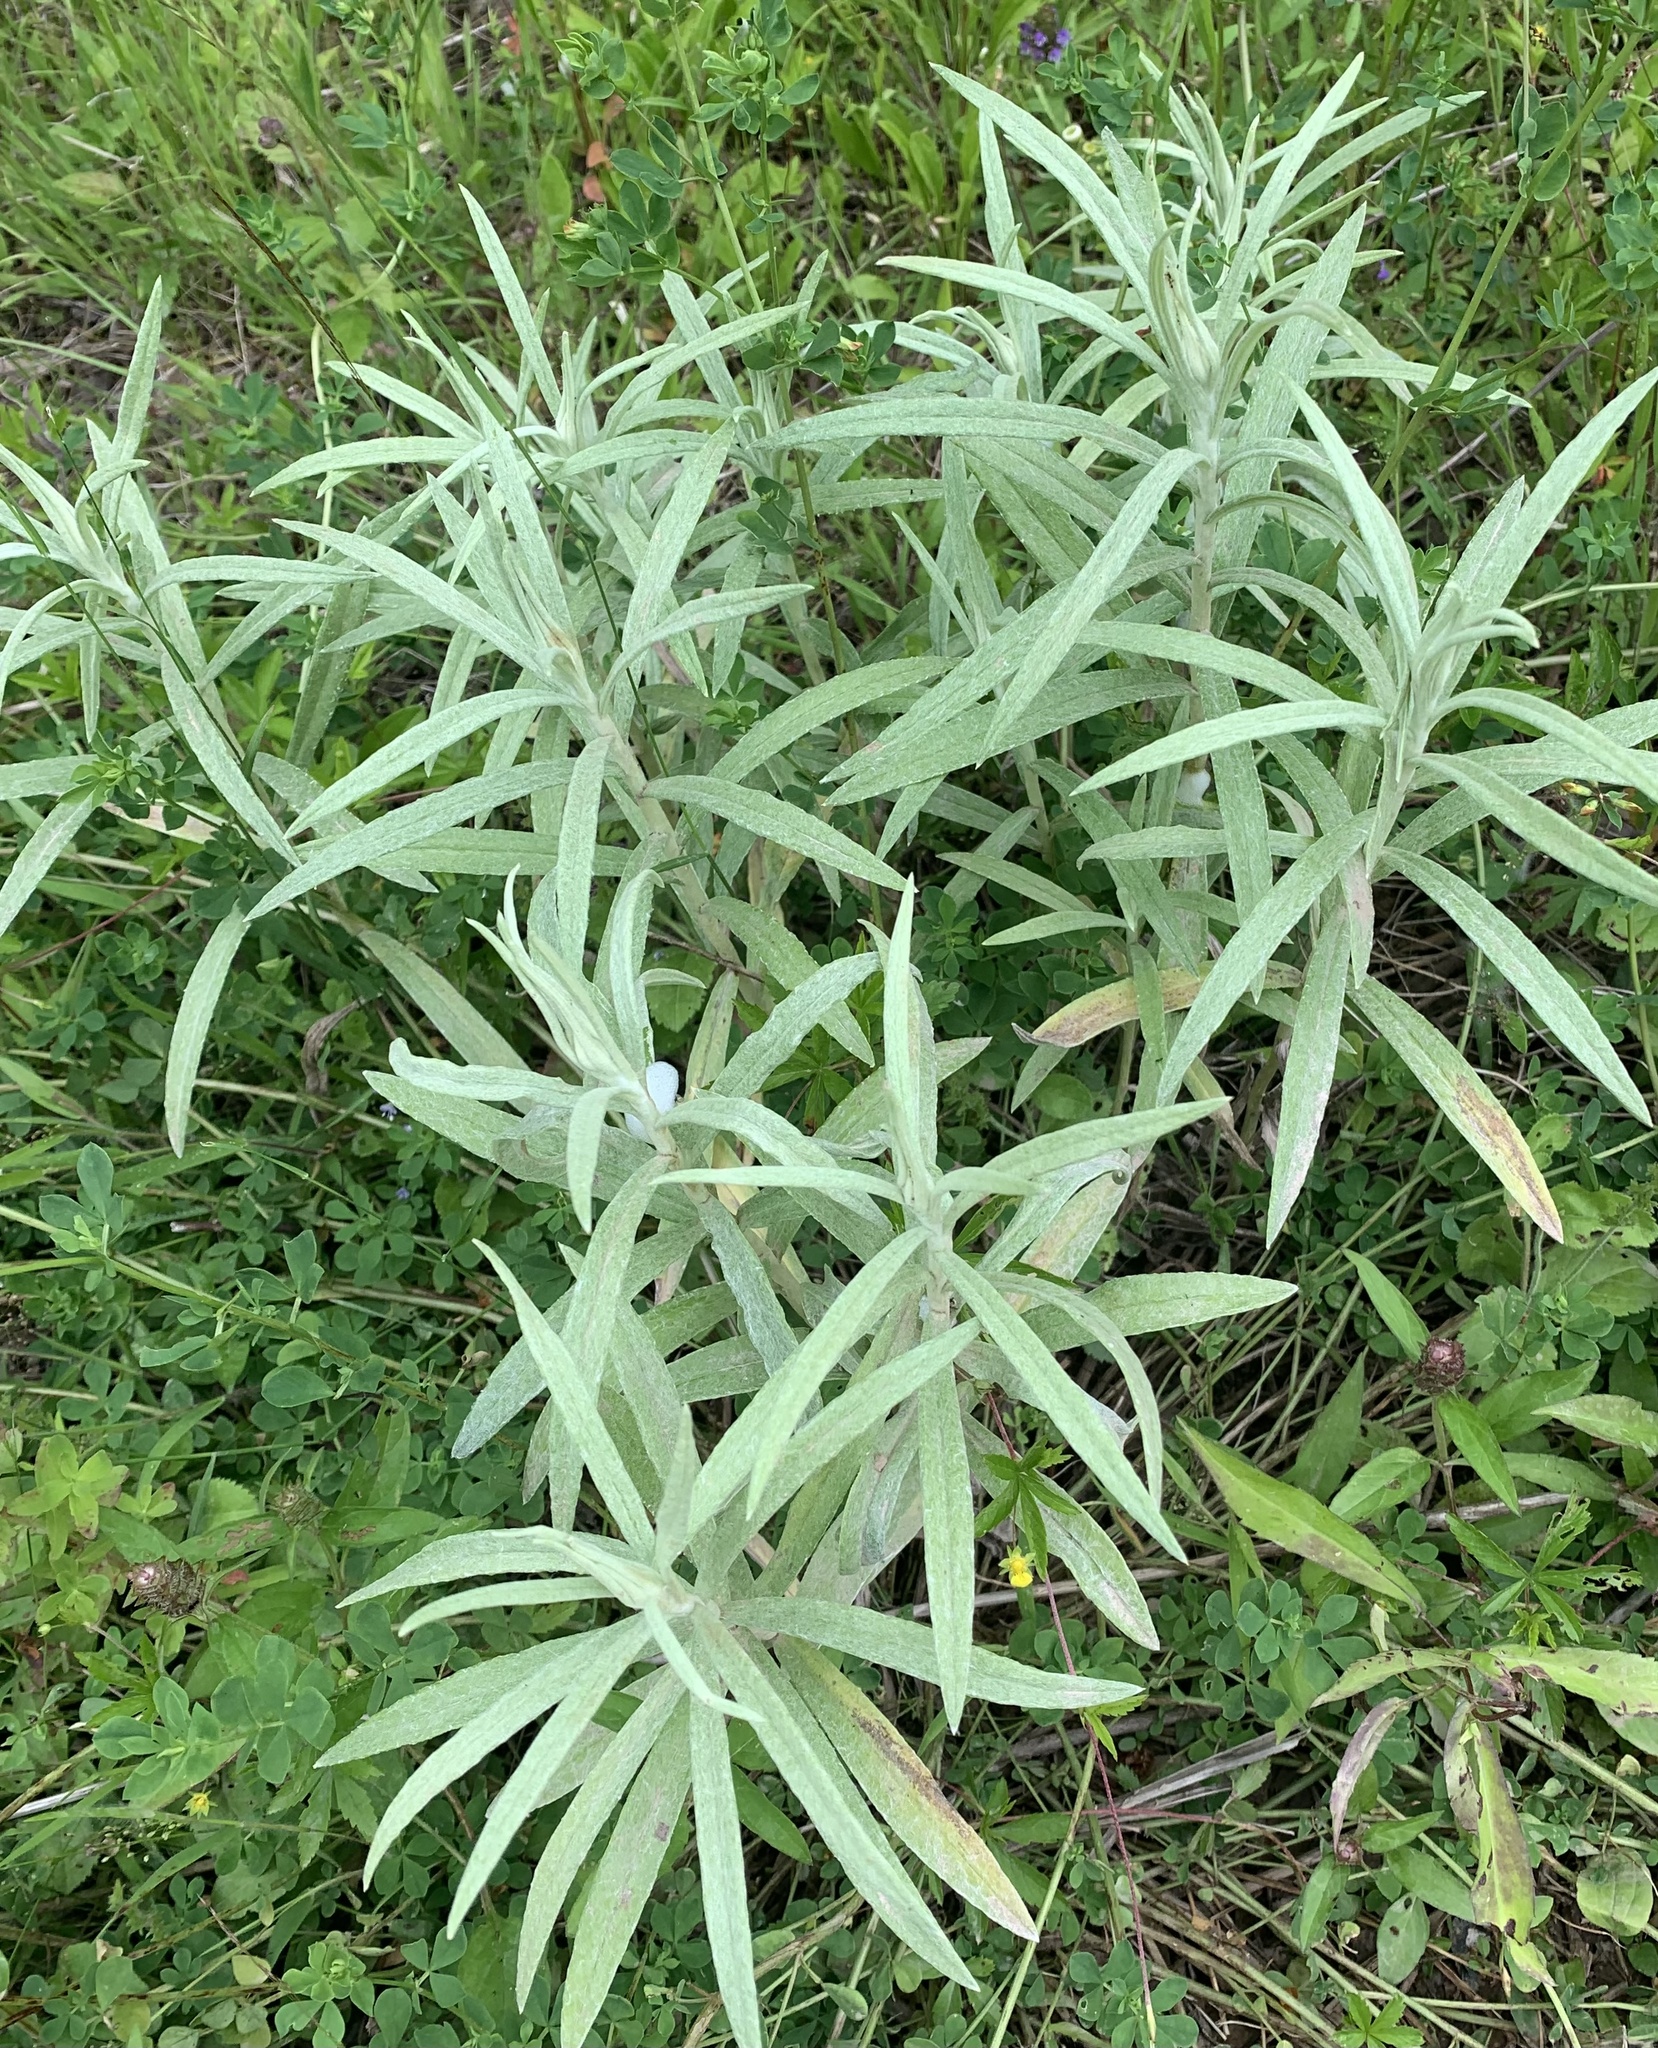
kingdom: Plantae
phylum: Tracheophyta
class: Magnoliopsida
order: Asterales
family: Asteraceae
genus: Anaphalis
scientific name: Anaphalis margaritacea
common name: Pearly everlasting
